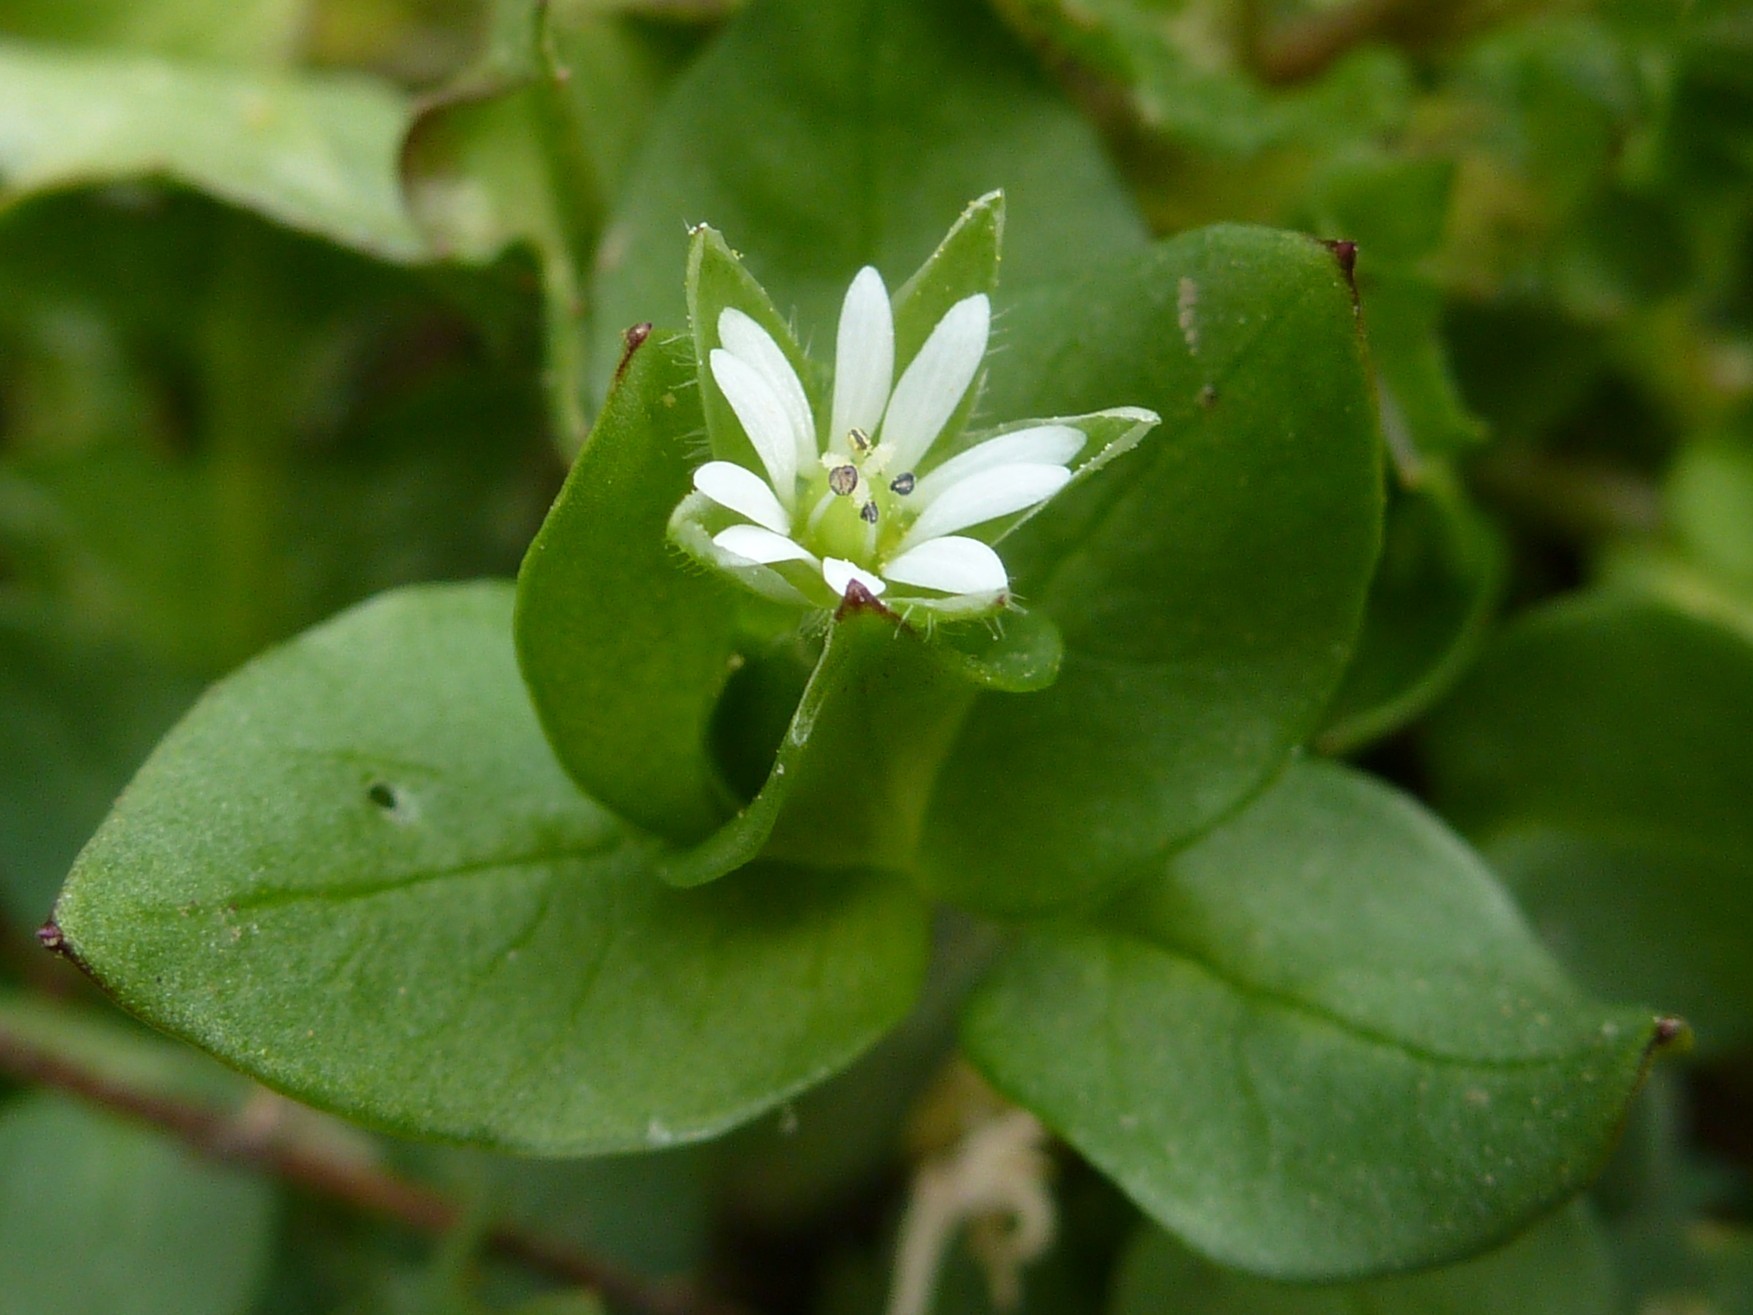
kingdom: Plantae
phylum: Tracheophyta
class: Magnoliopsida
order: Caryophyllales
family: Caryophyllaceae
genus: Stellaria
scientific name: Stellaria media
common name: Common chickweed
